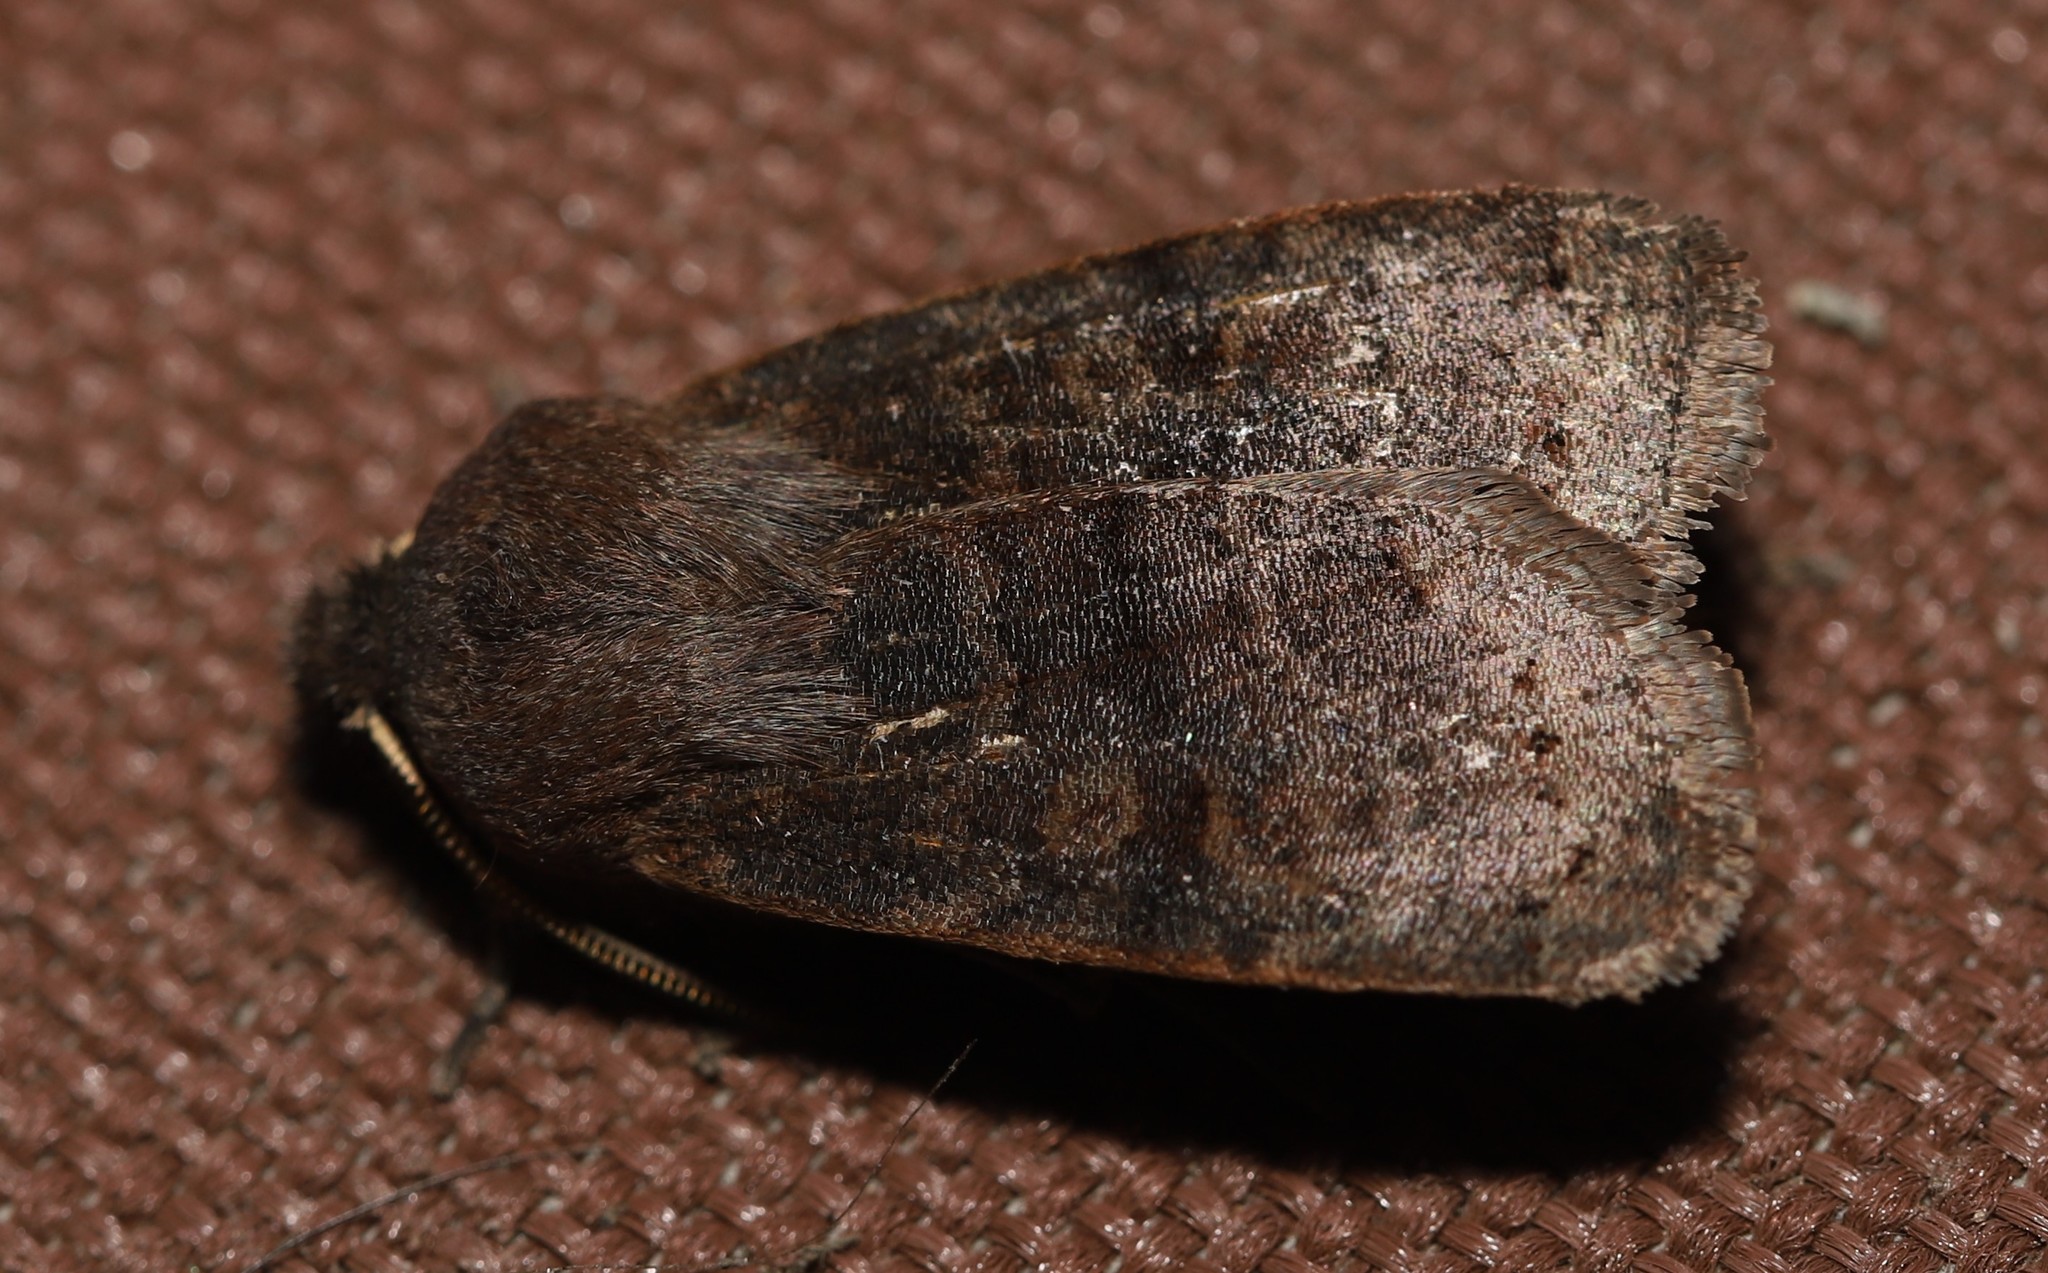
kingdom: Animalia
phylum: Arthropoda
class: Insecta
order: Lepidoptera
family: Noctuidae
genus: Homoglaea
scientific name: Homoglaea hircina
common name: Goat sallow
